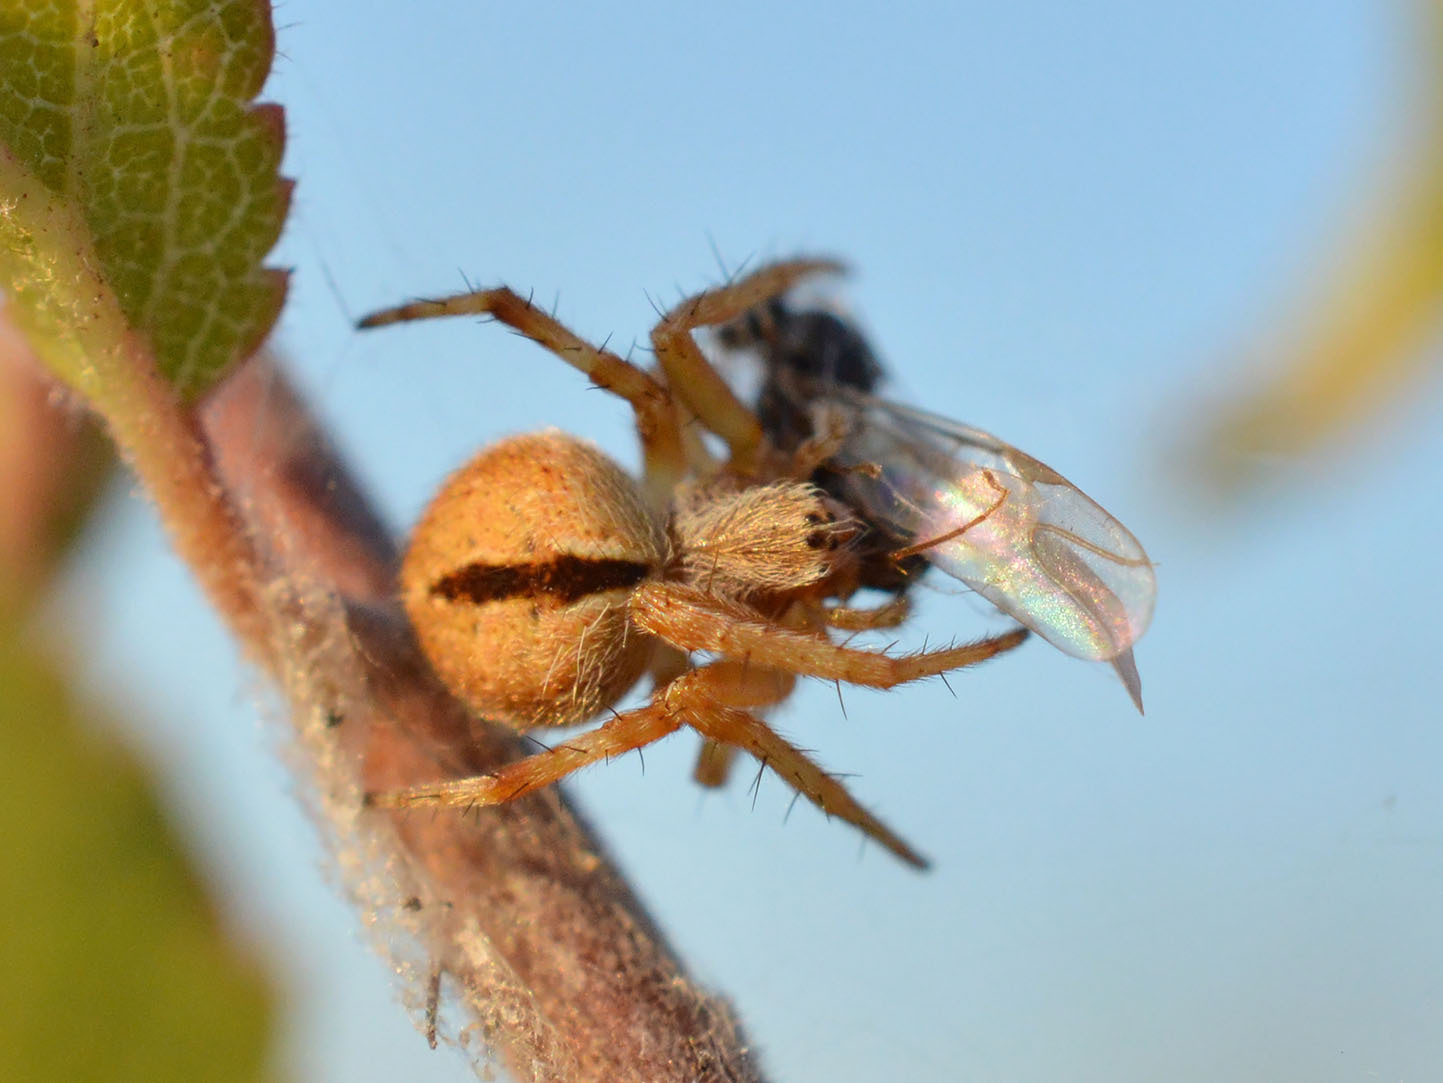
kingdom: Animalia
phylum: Arthropoda
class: Arachnida
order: Araneae
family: Araneidae
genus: Agalenatea
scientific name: Agalenatea redii
